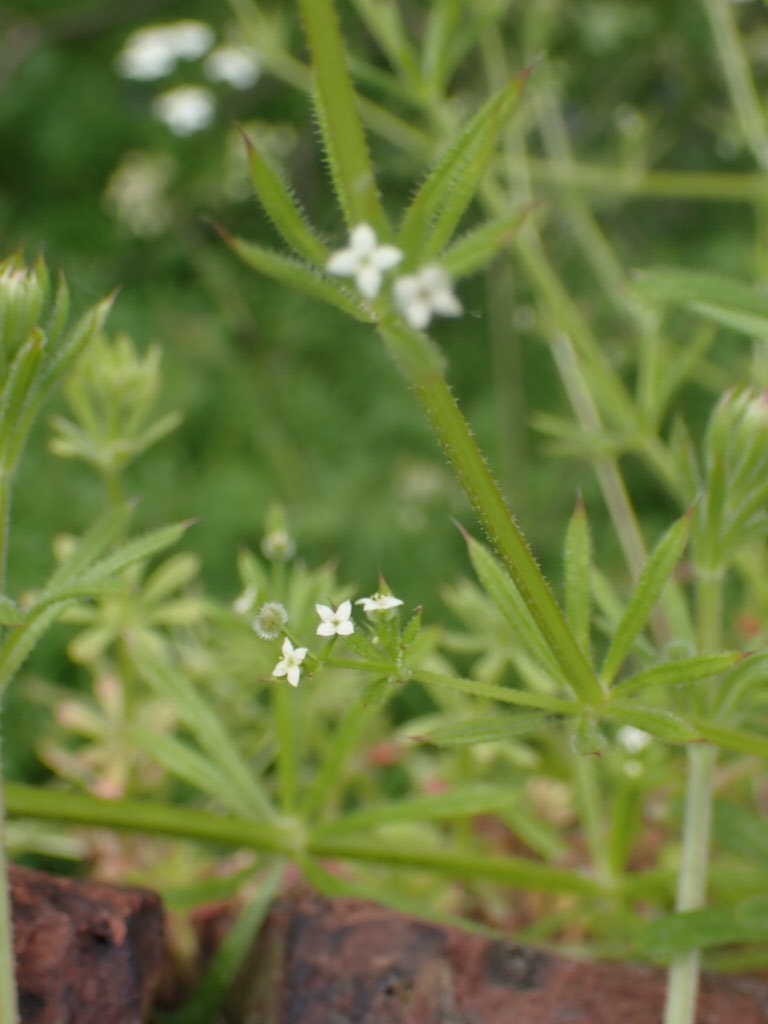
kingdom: Plantae
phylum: Tracheophyta
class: Magnoliopsida
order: Gentianales
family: Rubiaceae
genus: Galium
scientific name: Galium aparine
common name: Cleavers
